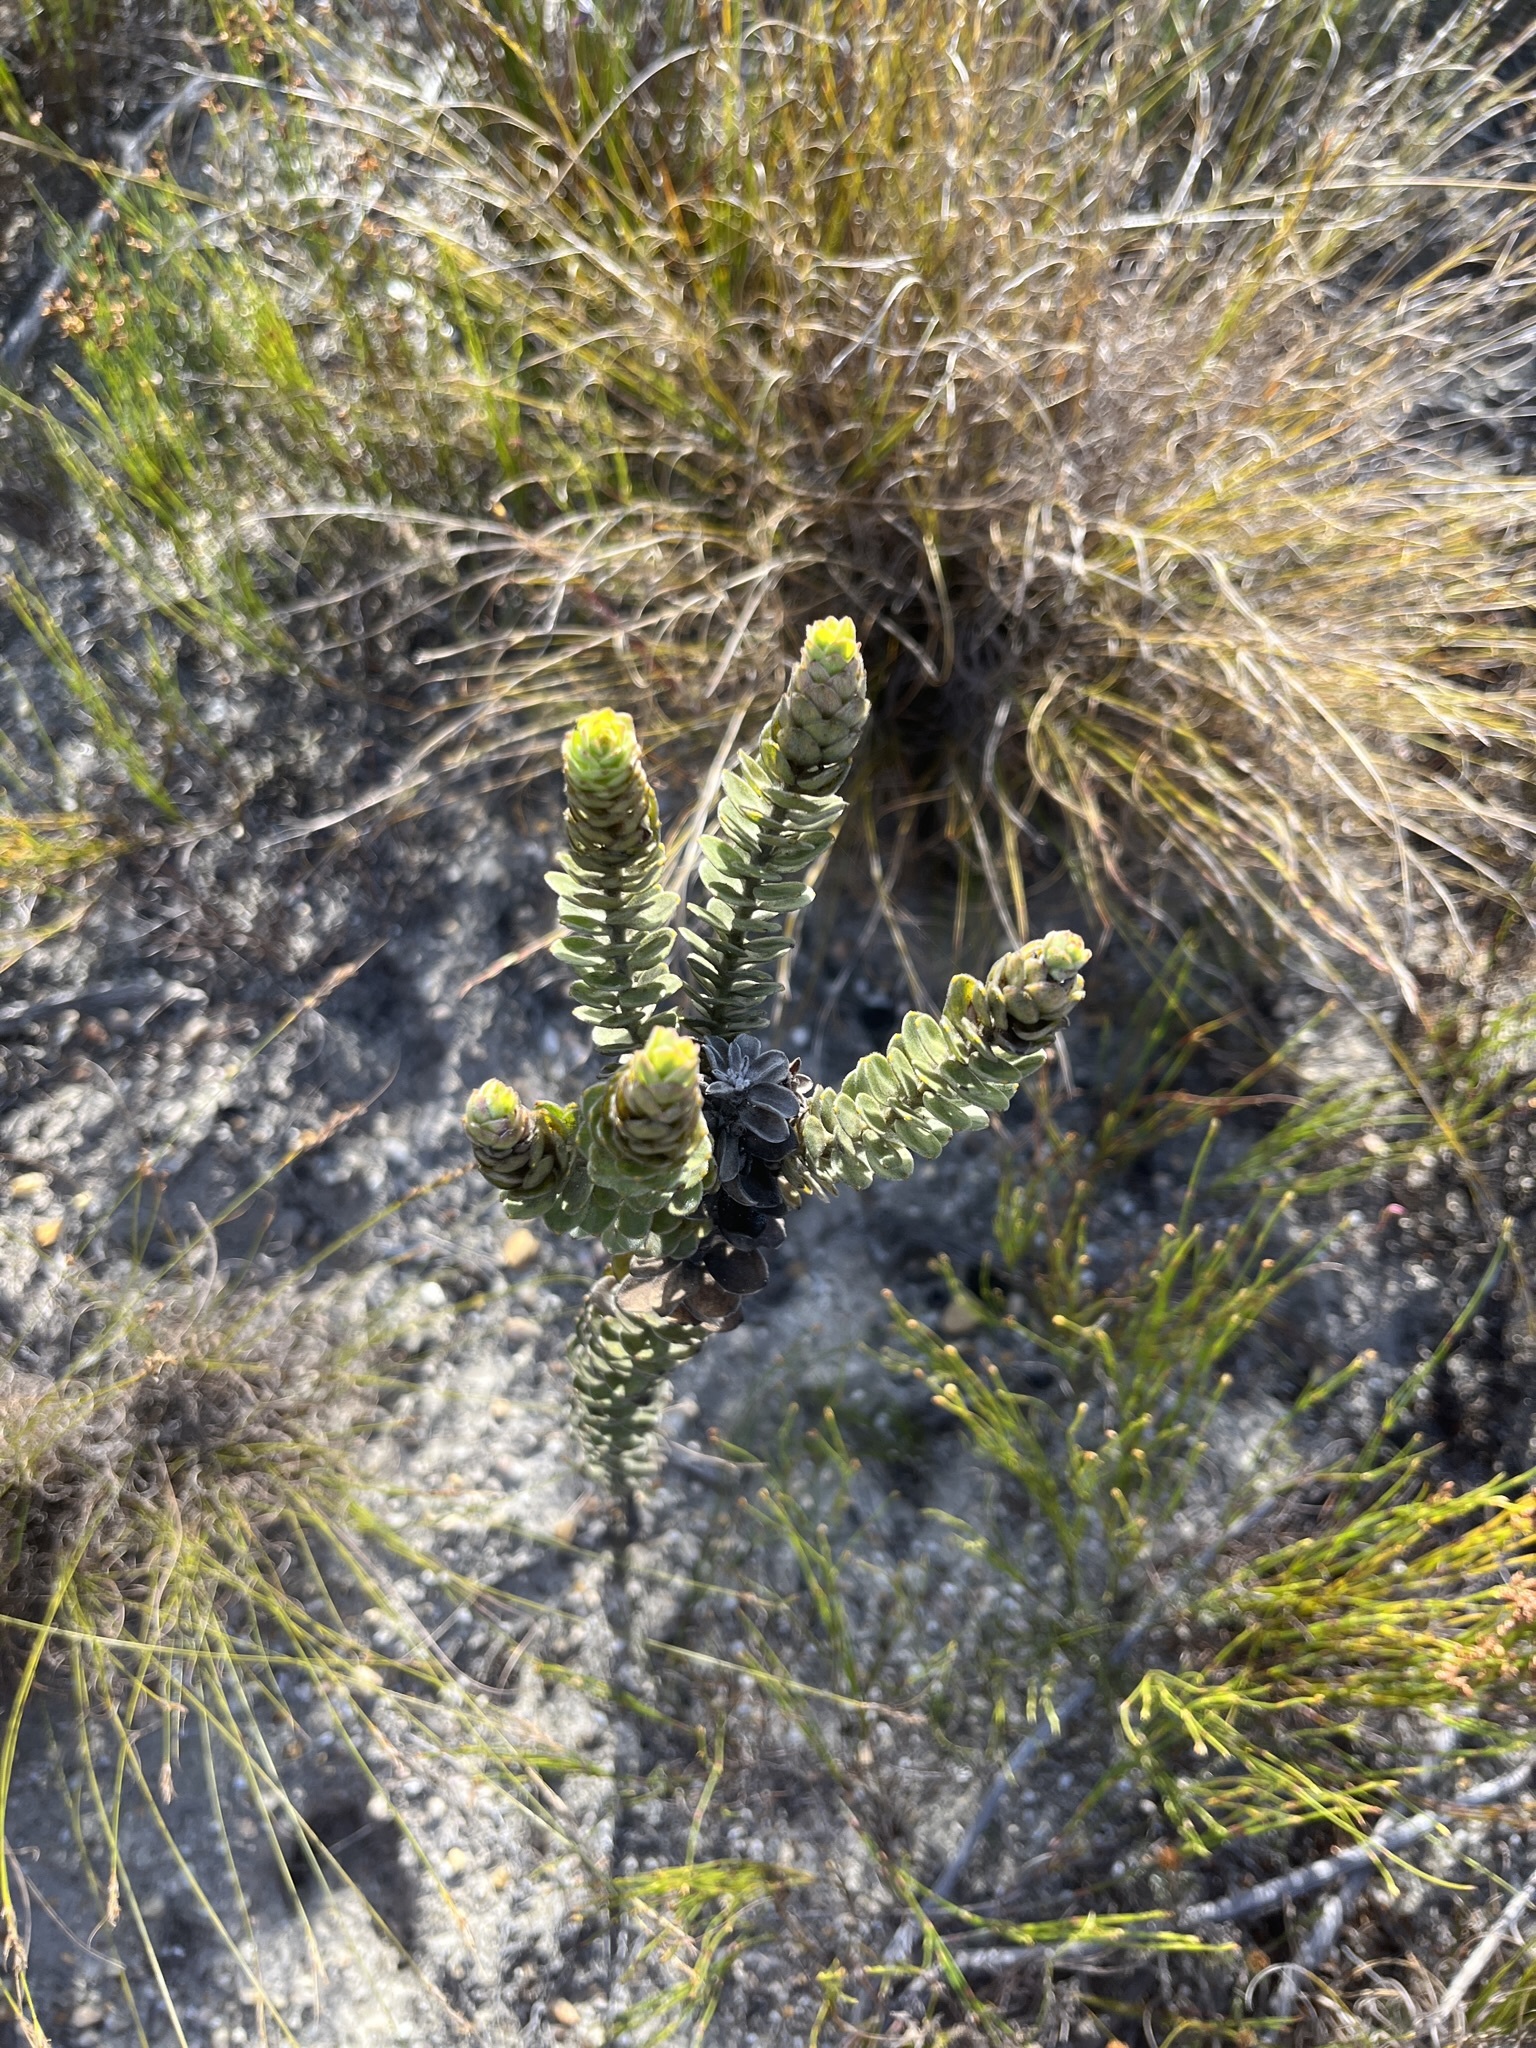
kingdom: Plantae
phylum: Tracheophyta
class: Magnoliopsida
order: Proteales
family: Proteaceae
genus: Leucospermum
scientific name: Leucospermum truncatulum
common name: Oval-leaf pincushion
